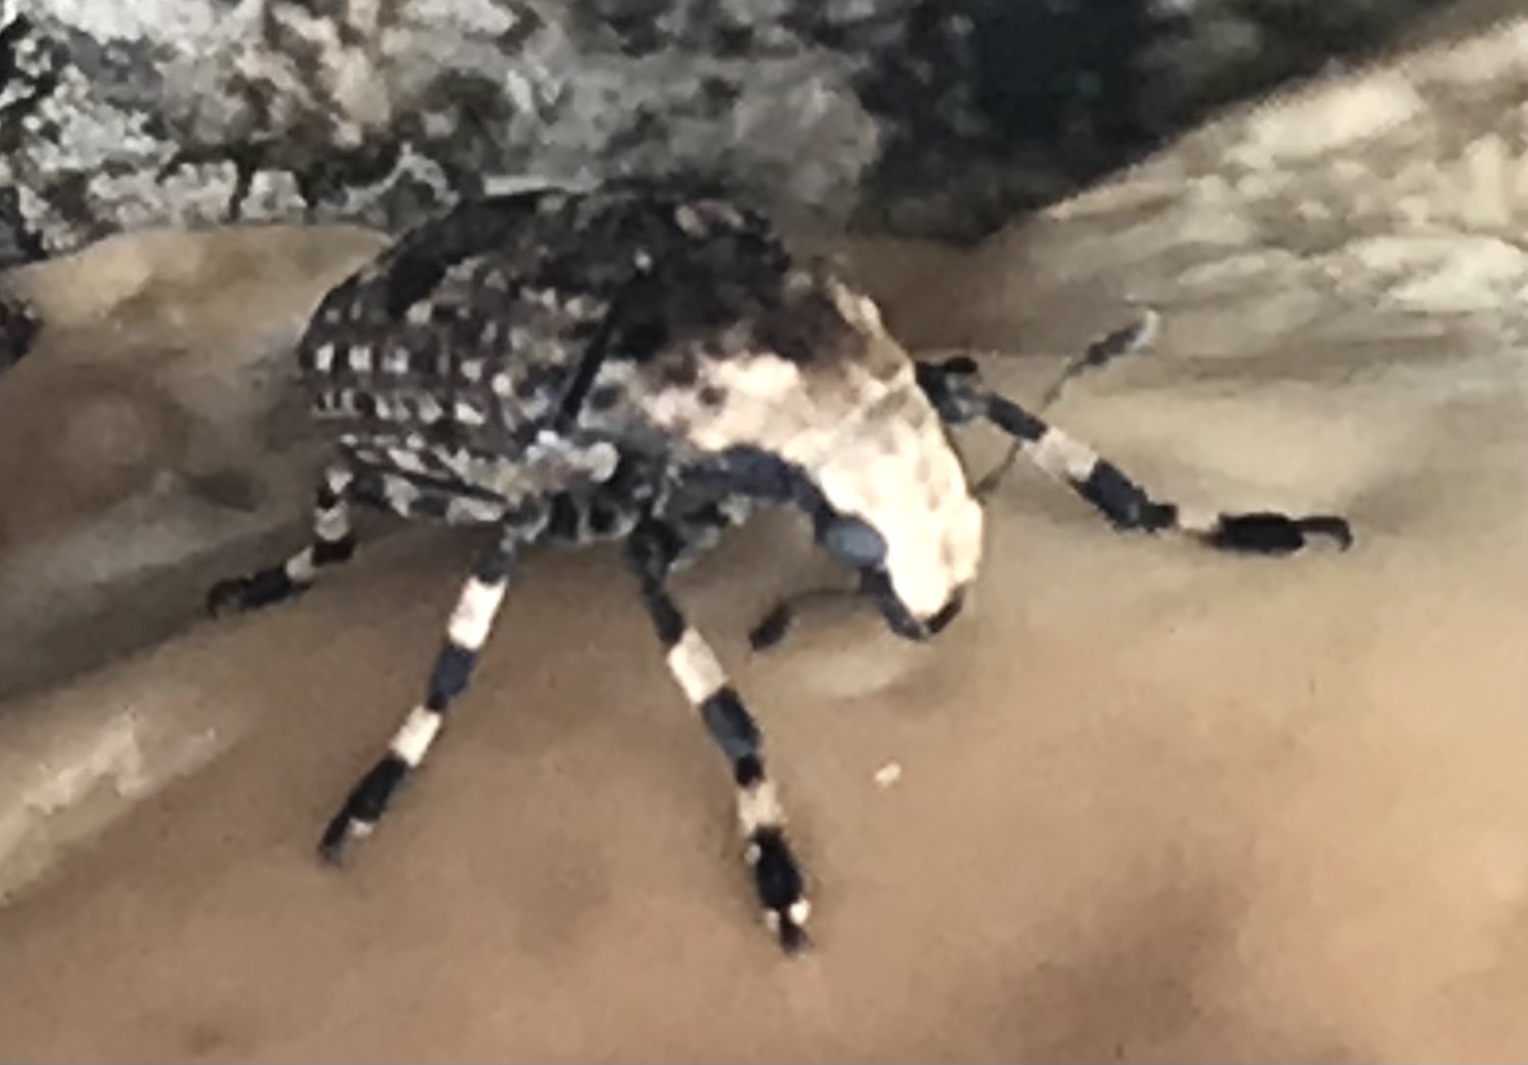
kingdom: Animalia
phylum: Arthropoda
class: Insecta
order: Coleoptera
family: Anthribidae
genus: Euparius
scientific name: Euparius marmoreus
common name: Marbled fungus weevil
